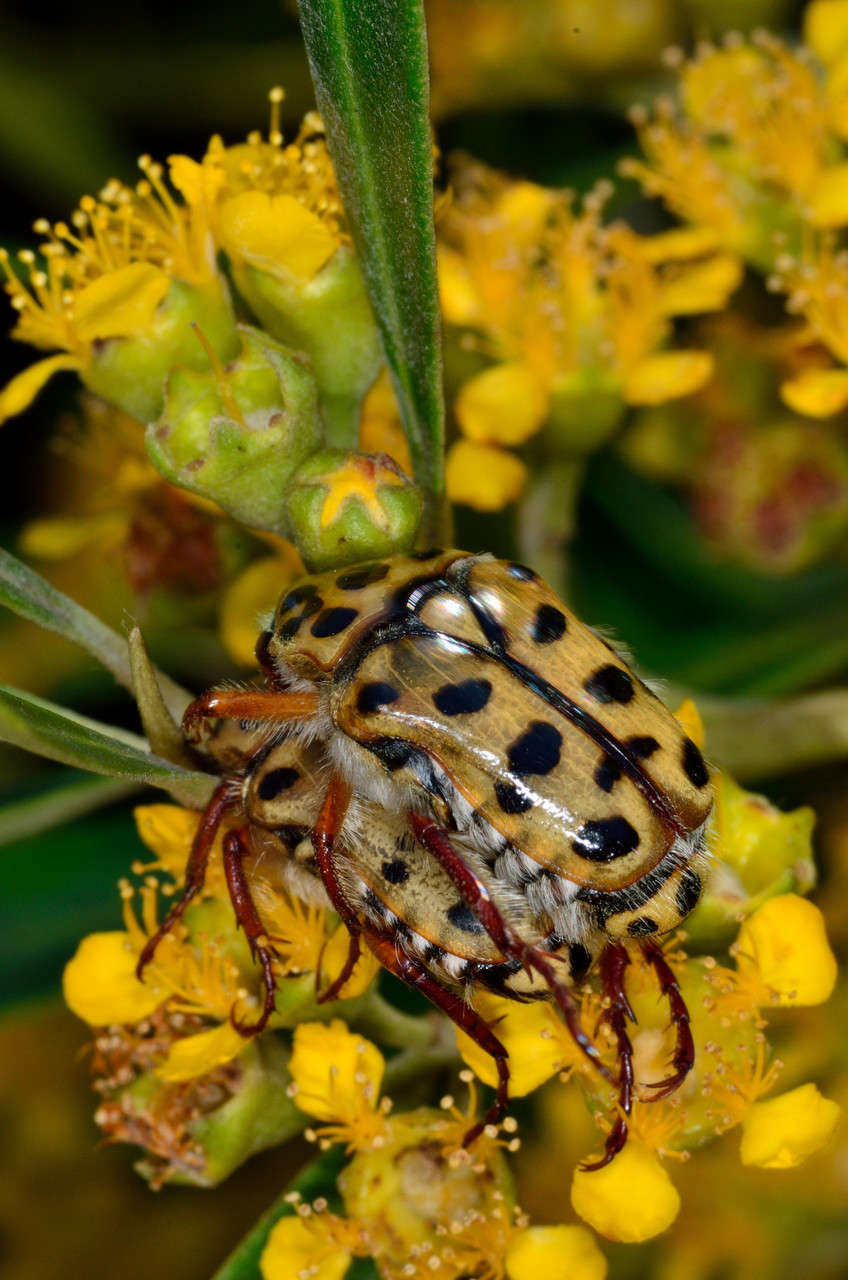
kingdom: Plantae
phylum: Tracheophyta
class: Magnoliopsida
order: Myrtales
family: Myrtaceae
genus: Tristaniopsis
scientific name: Tristaniopsis laurina
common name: Water-gum
